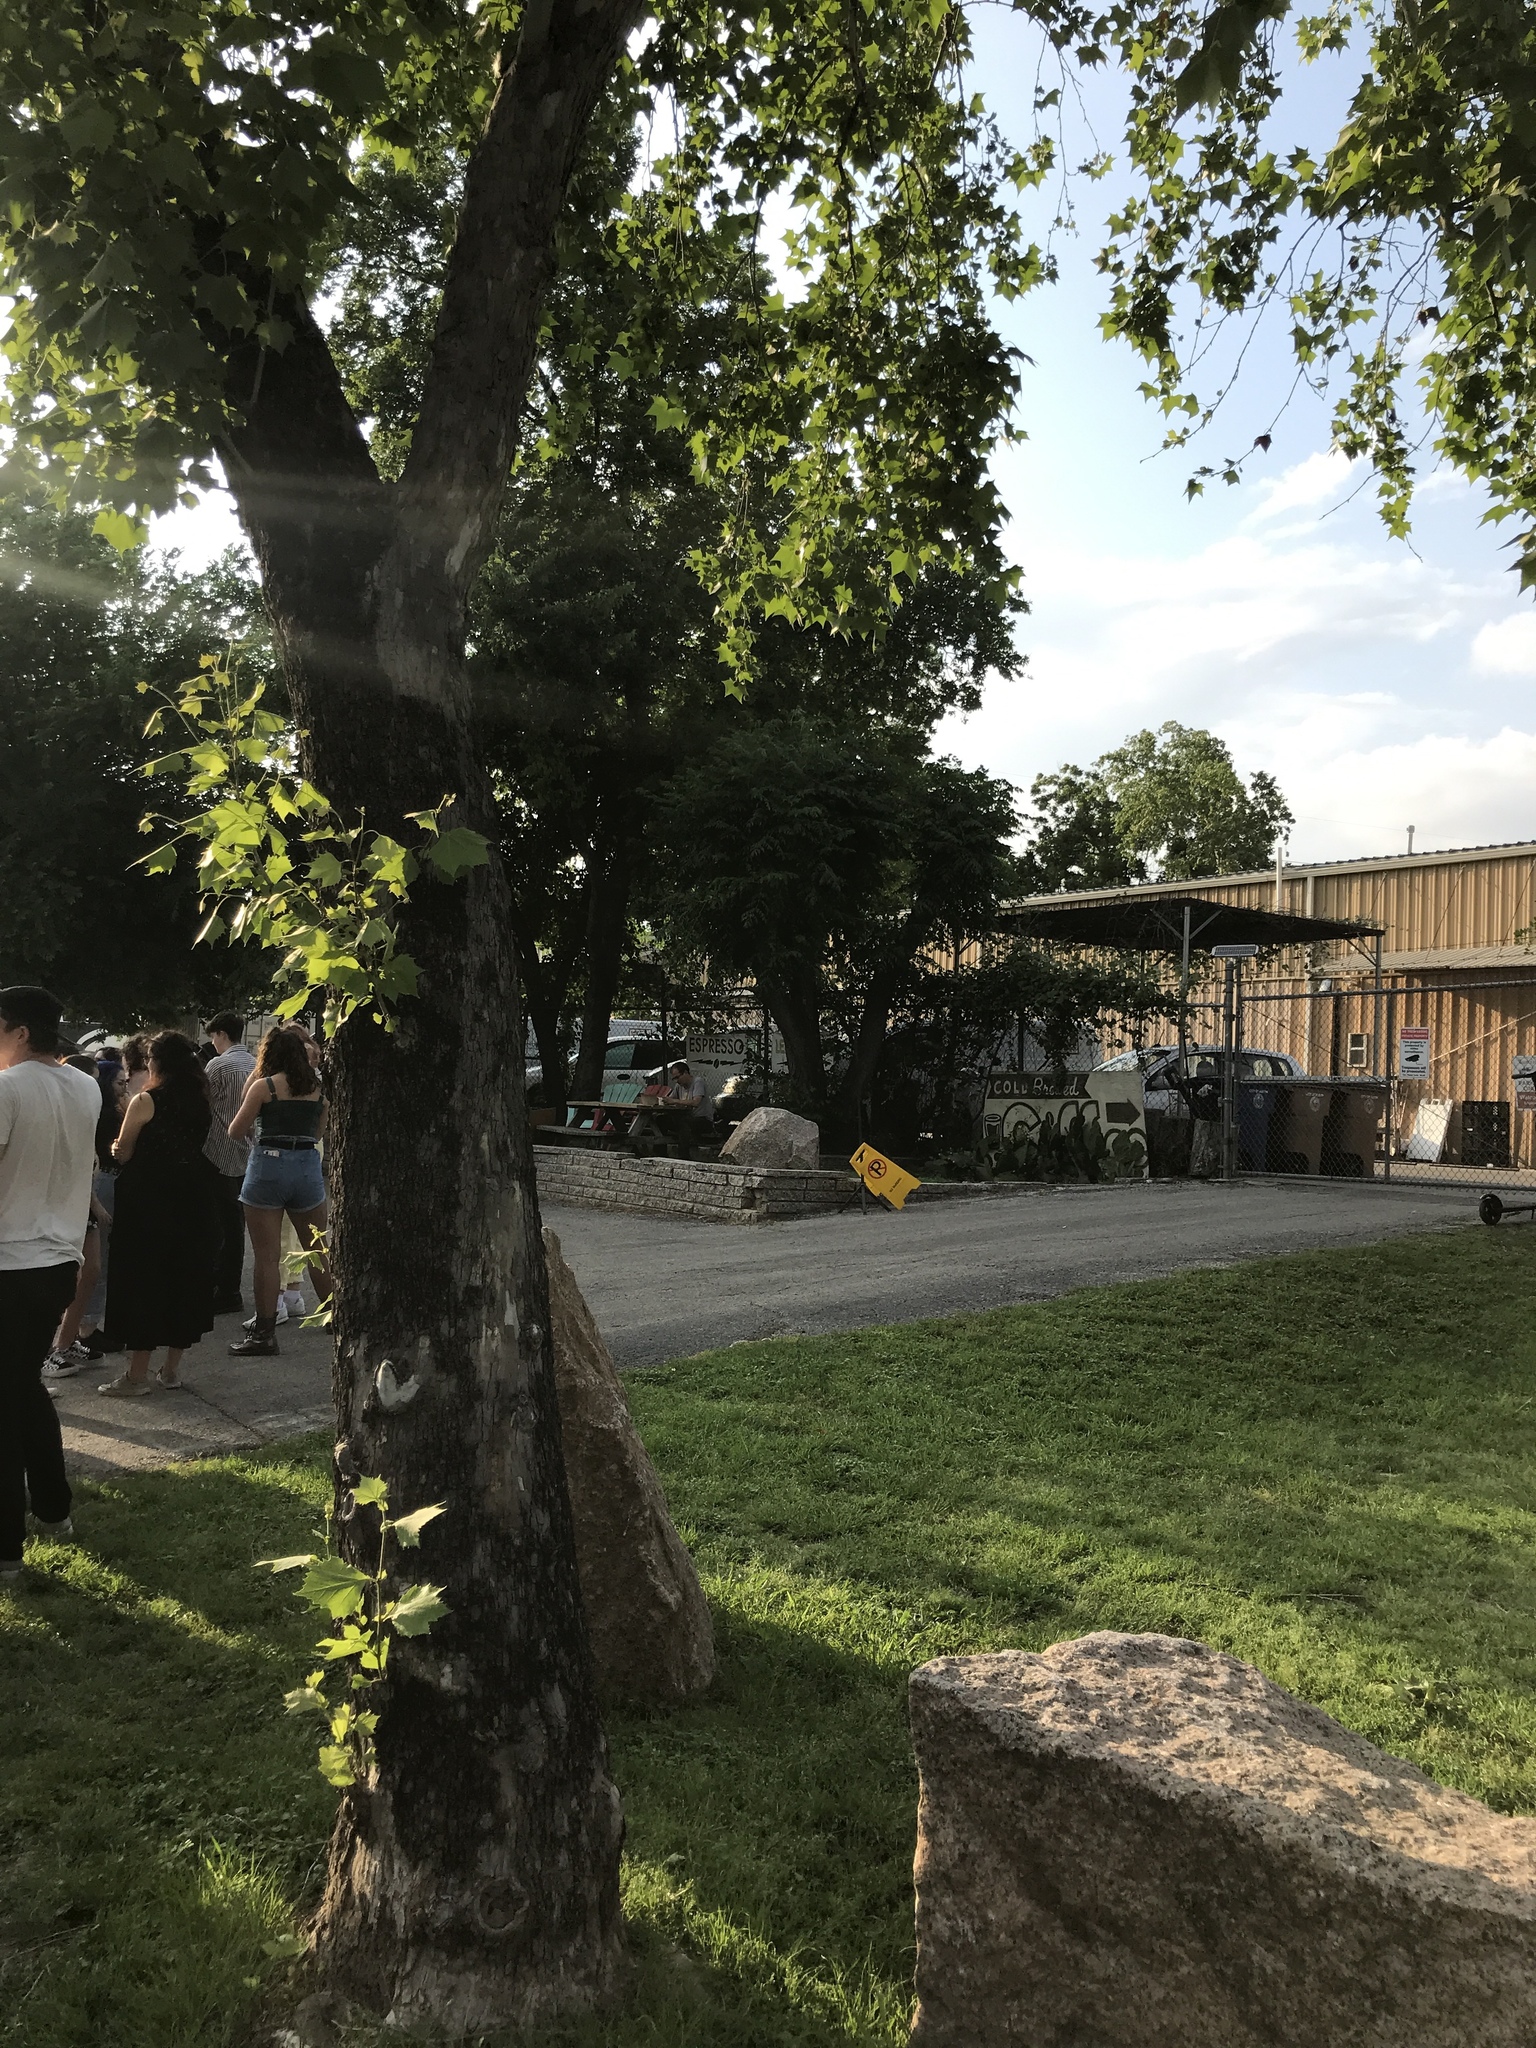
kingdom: Plantae
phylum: Tracheophyta
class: Magnoliopsida
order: Proteales
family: Platanaceae
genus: Platanus
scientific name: Platanus occidentalis
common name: American sycamore
